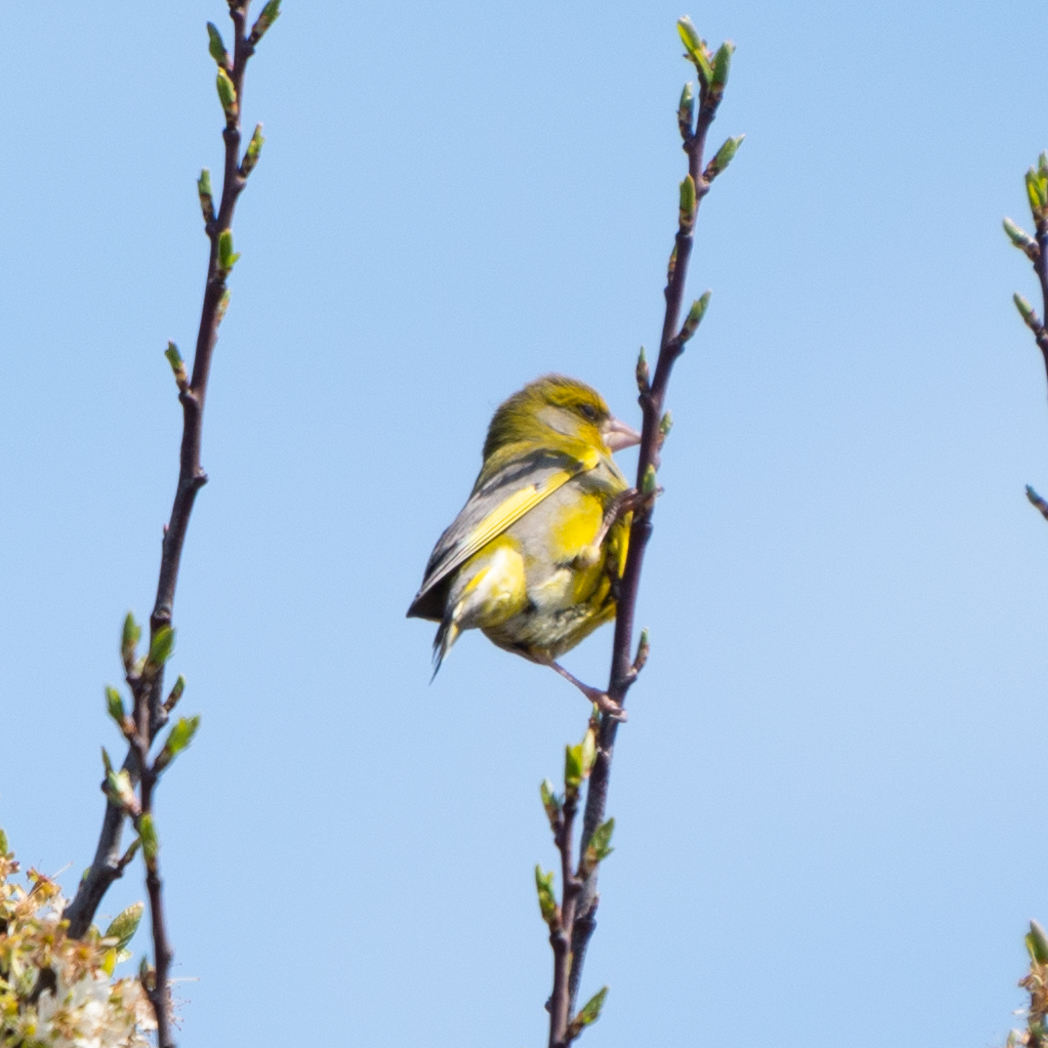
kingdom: Plantae
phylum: Tracheophyta
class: Liliopsida
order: Poales
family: Poaceae
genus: Chloris
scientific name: Chloris chloris
